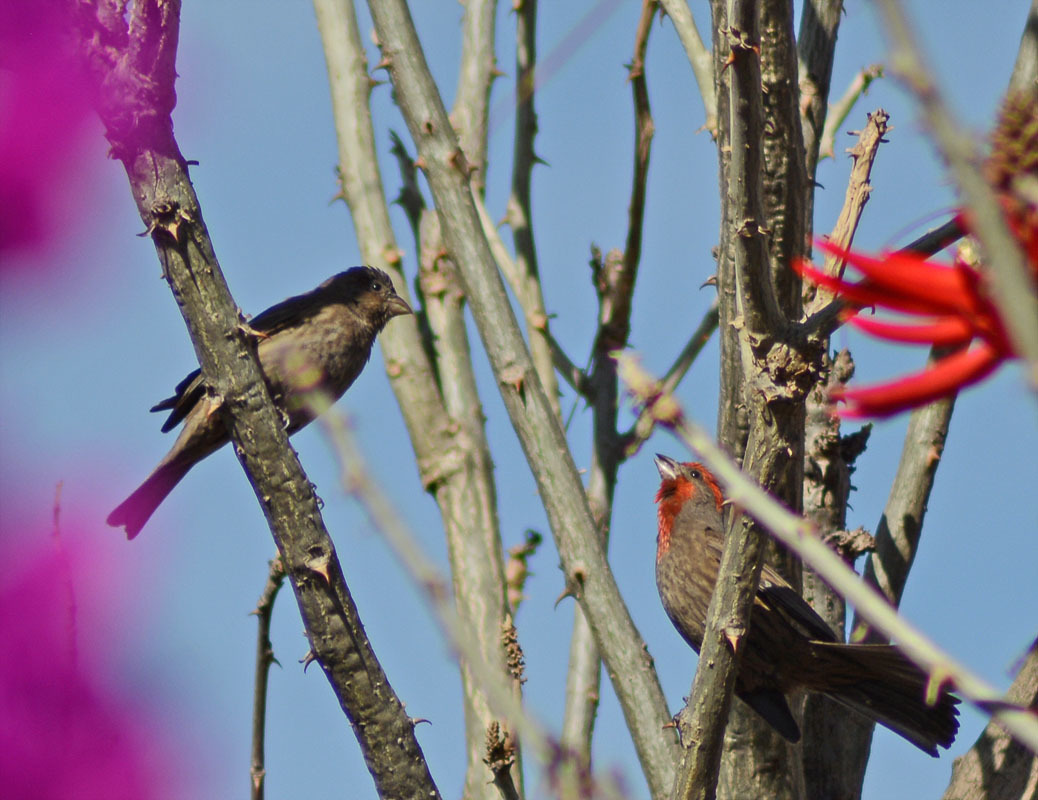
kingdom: Animalia
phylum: Chordata
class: Aves
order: Passeriformes
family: Fringillidae
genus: Haemorhous
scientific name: Haemorhous mexicanus
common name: House finch
